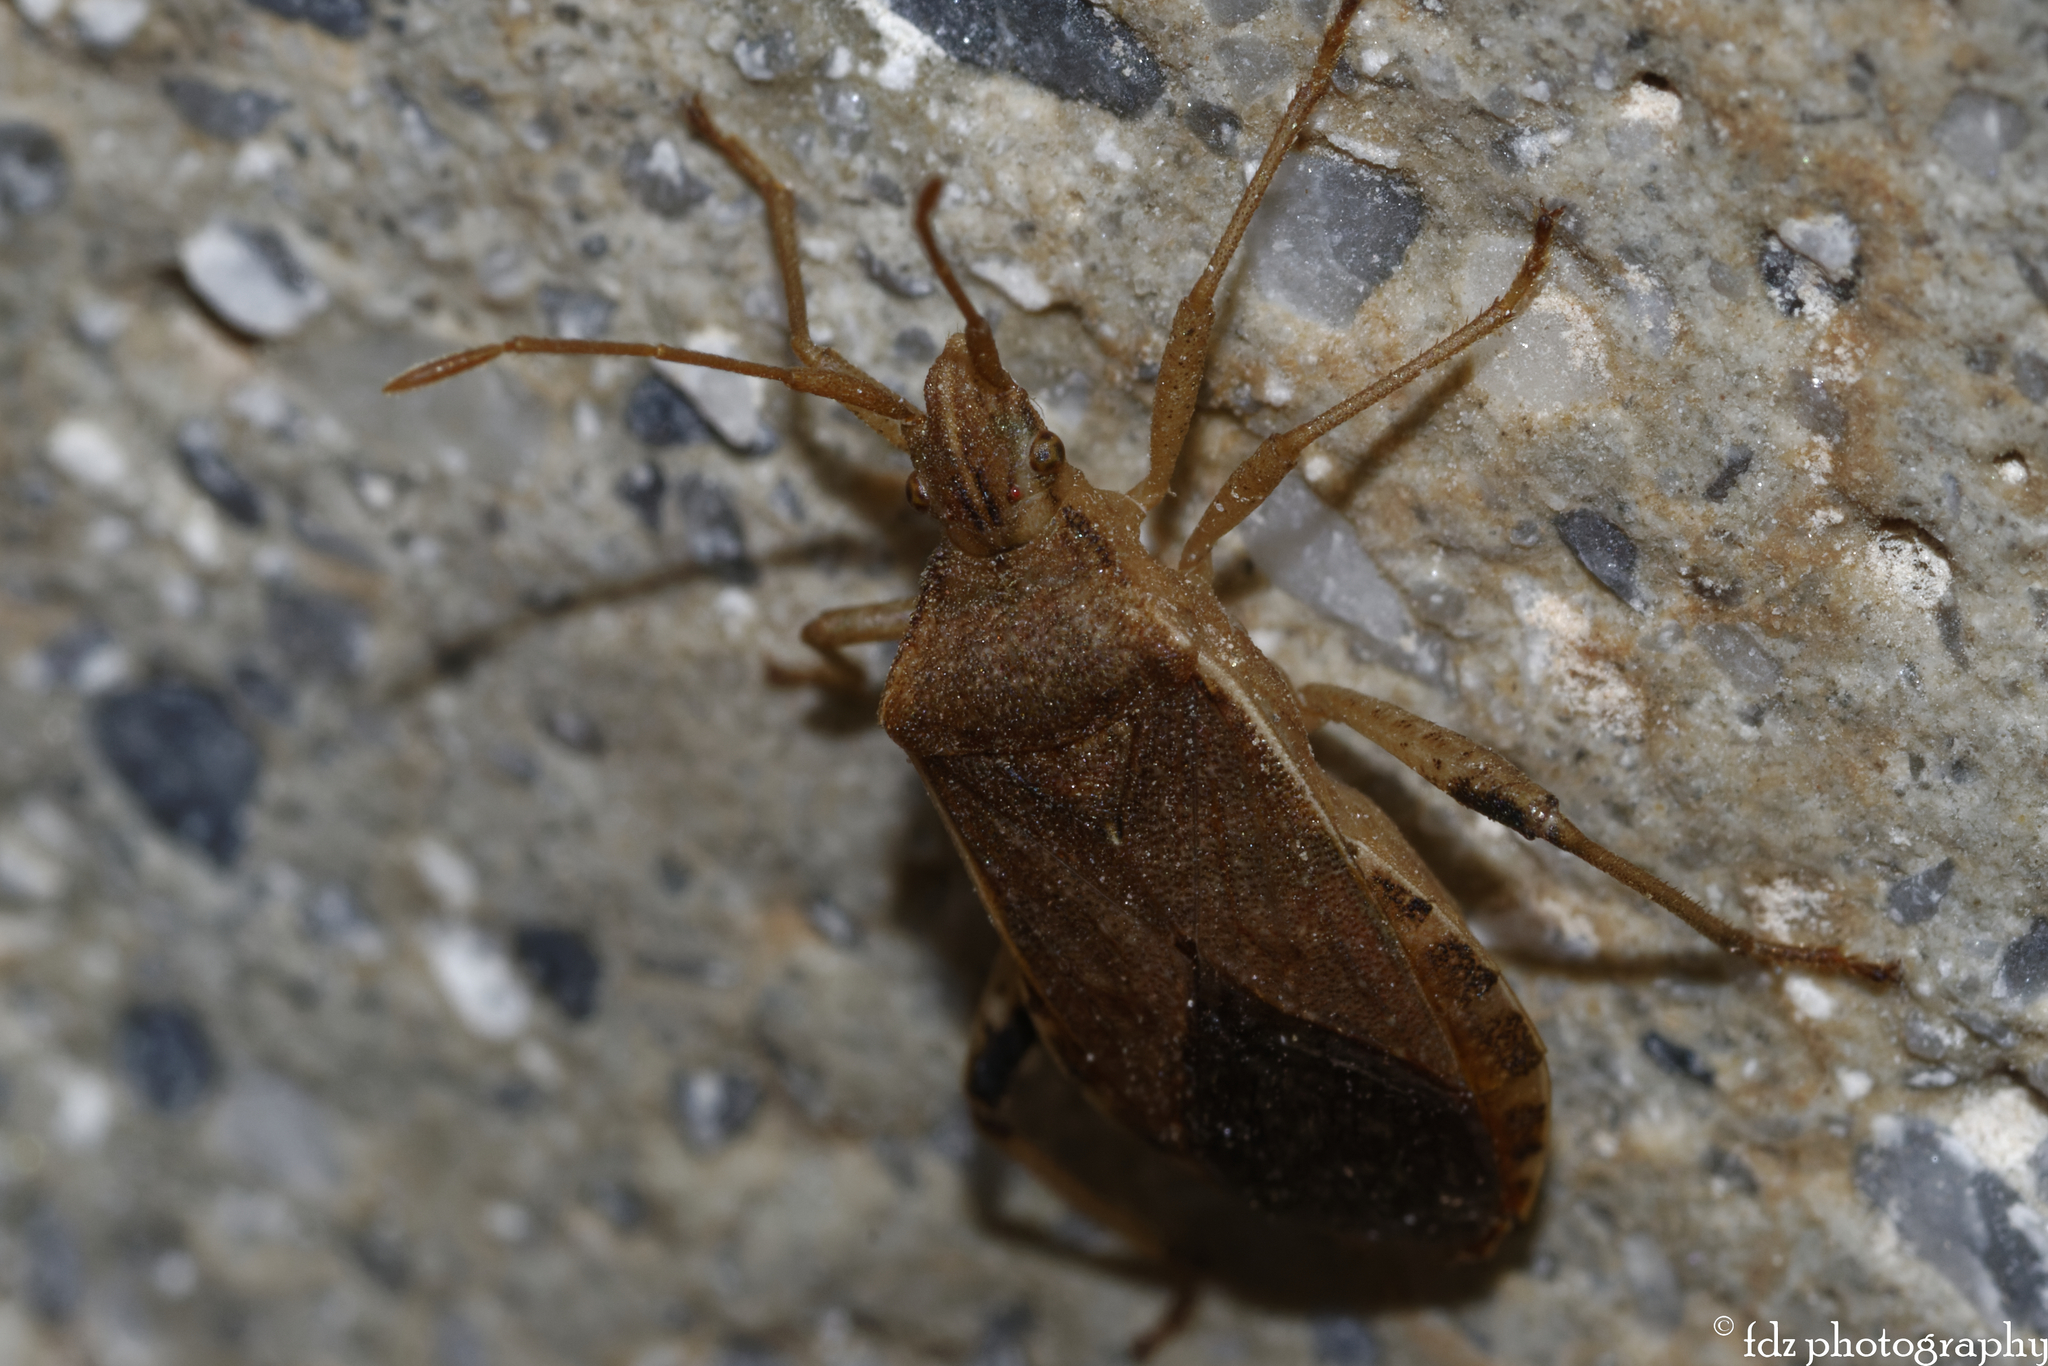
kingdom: Animalia
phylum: Arthropoda
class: Insecta
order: Hemiptera
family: Coreidae
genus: Ceraleptus
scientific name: Ceraleptus obtusus
